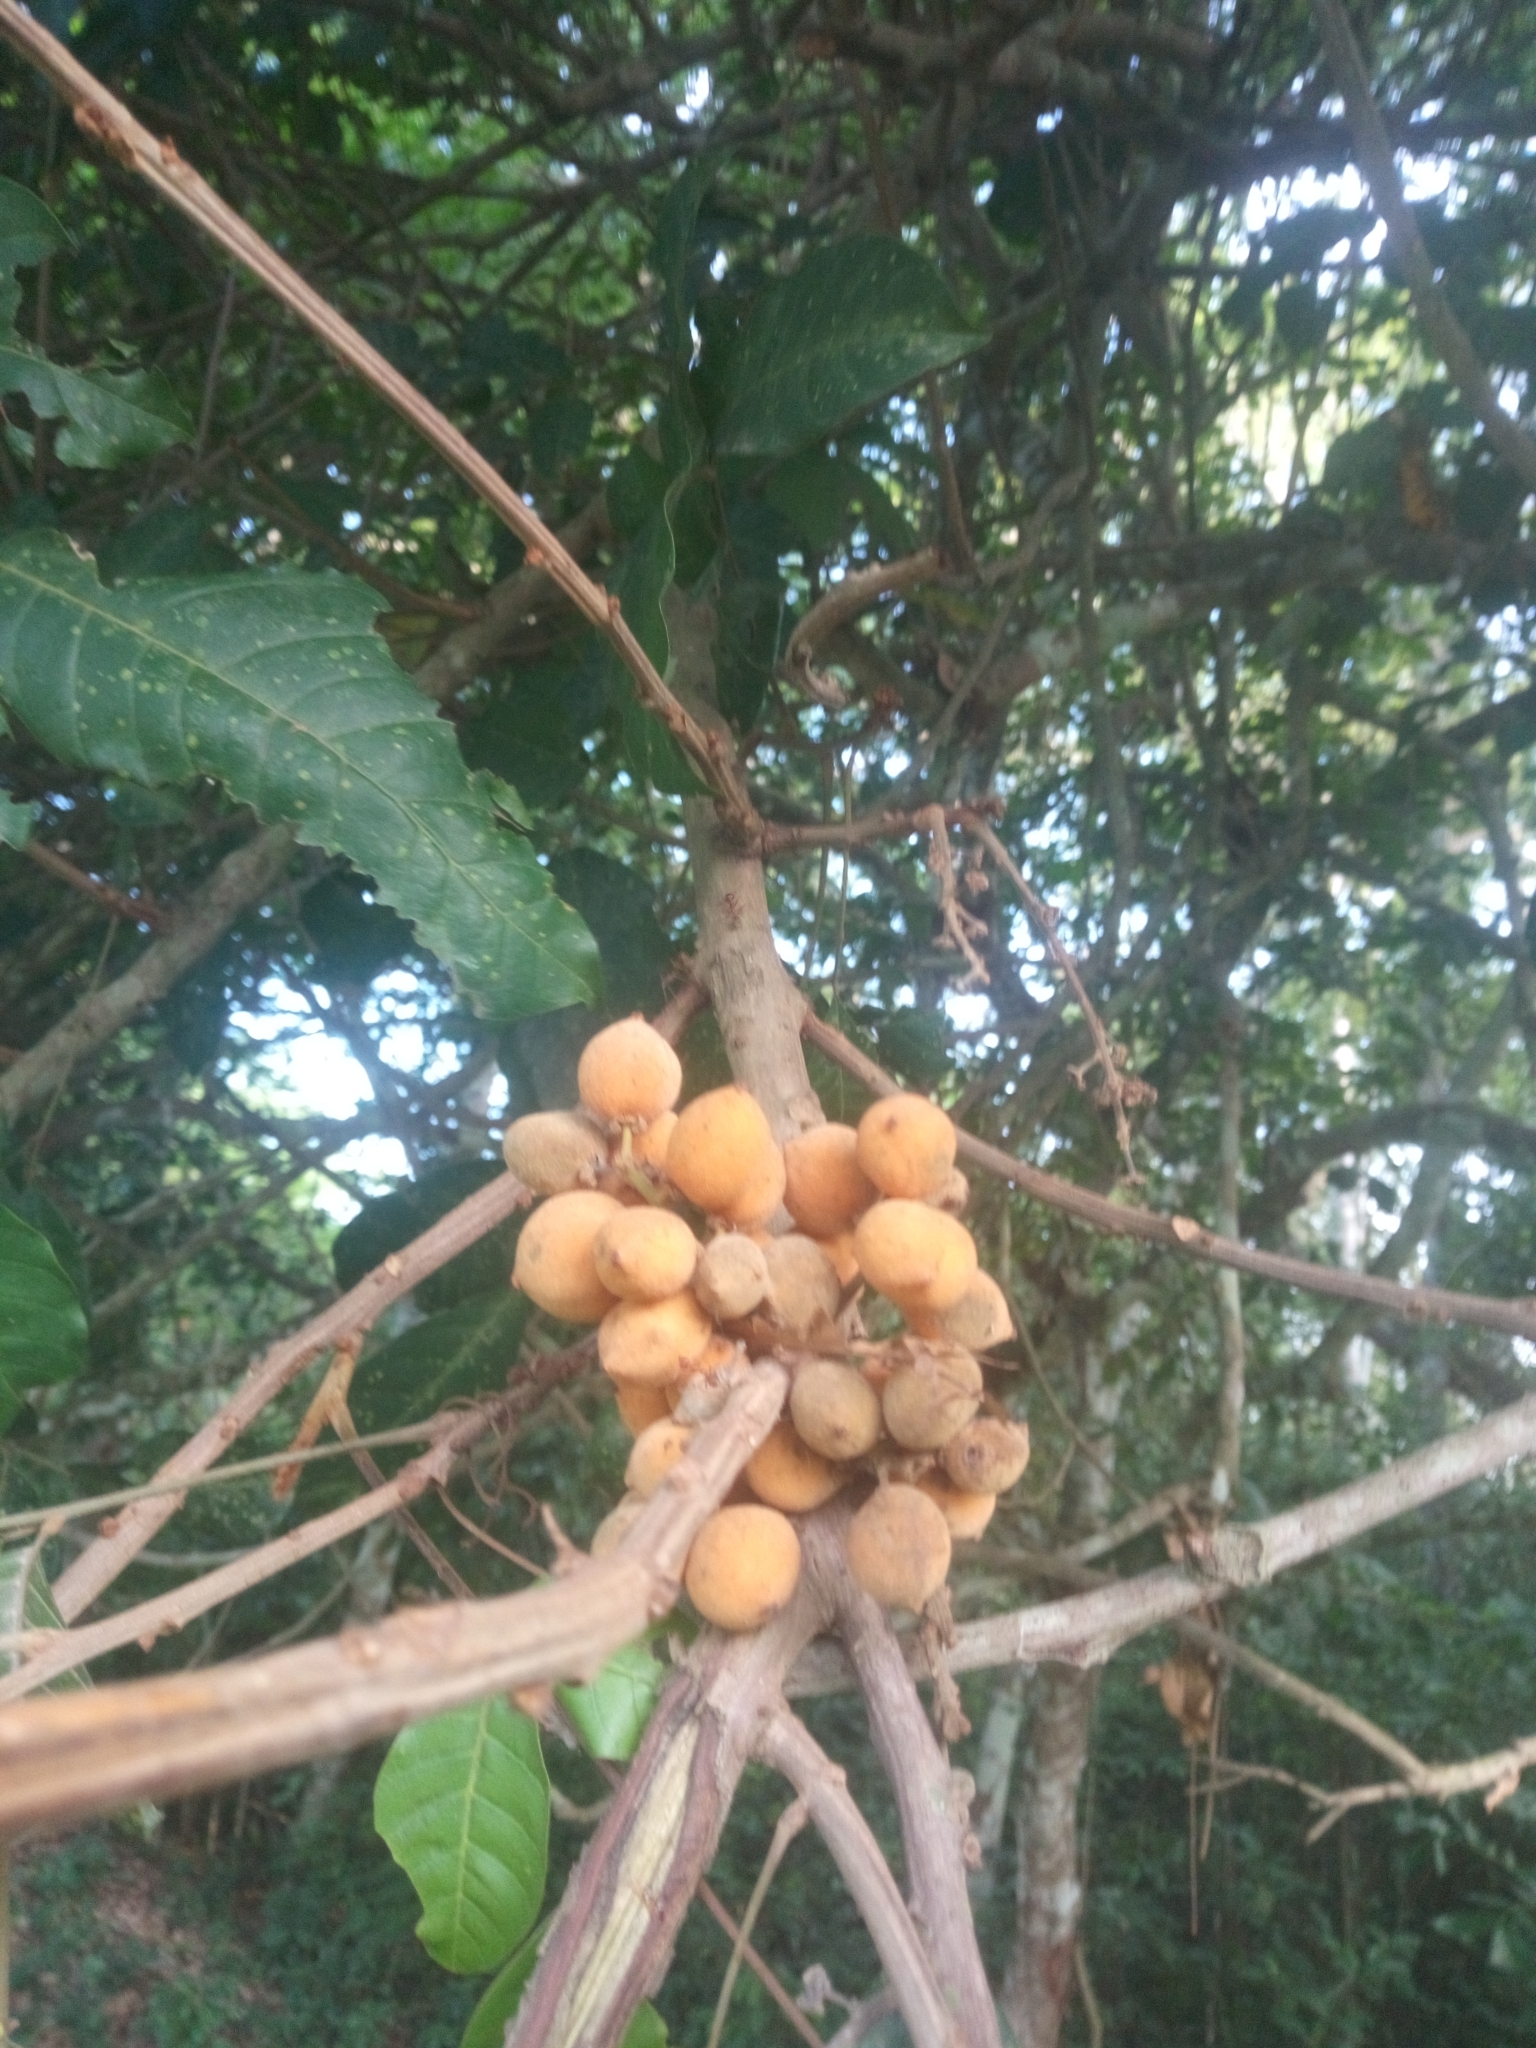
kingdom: Plantae
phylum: Tracheophyta
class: Magnoliopsida
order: Sapindales
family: Sapindaceae
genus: Lecaniodiscus
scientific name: Lecaniodiscus cupanioides
